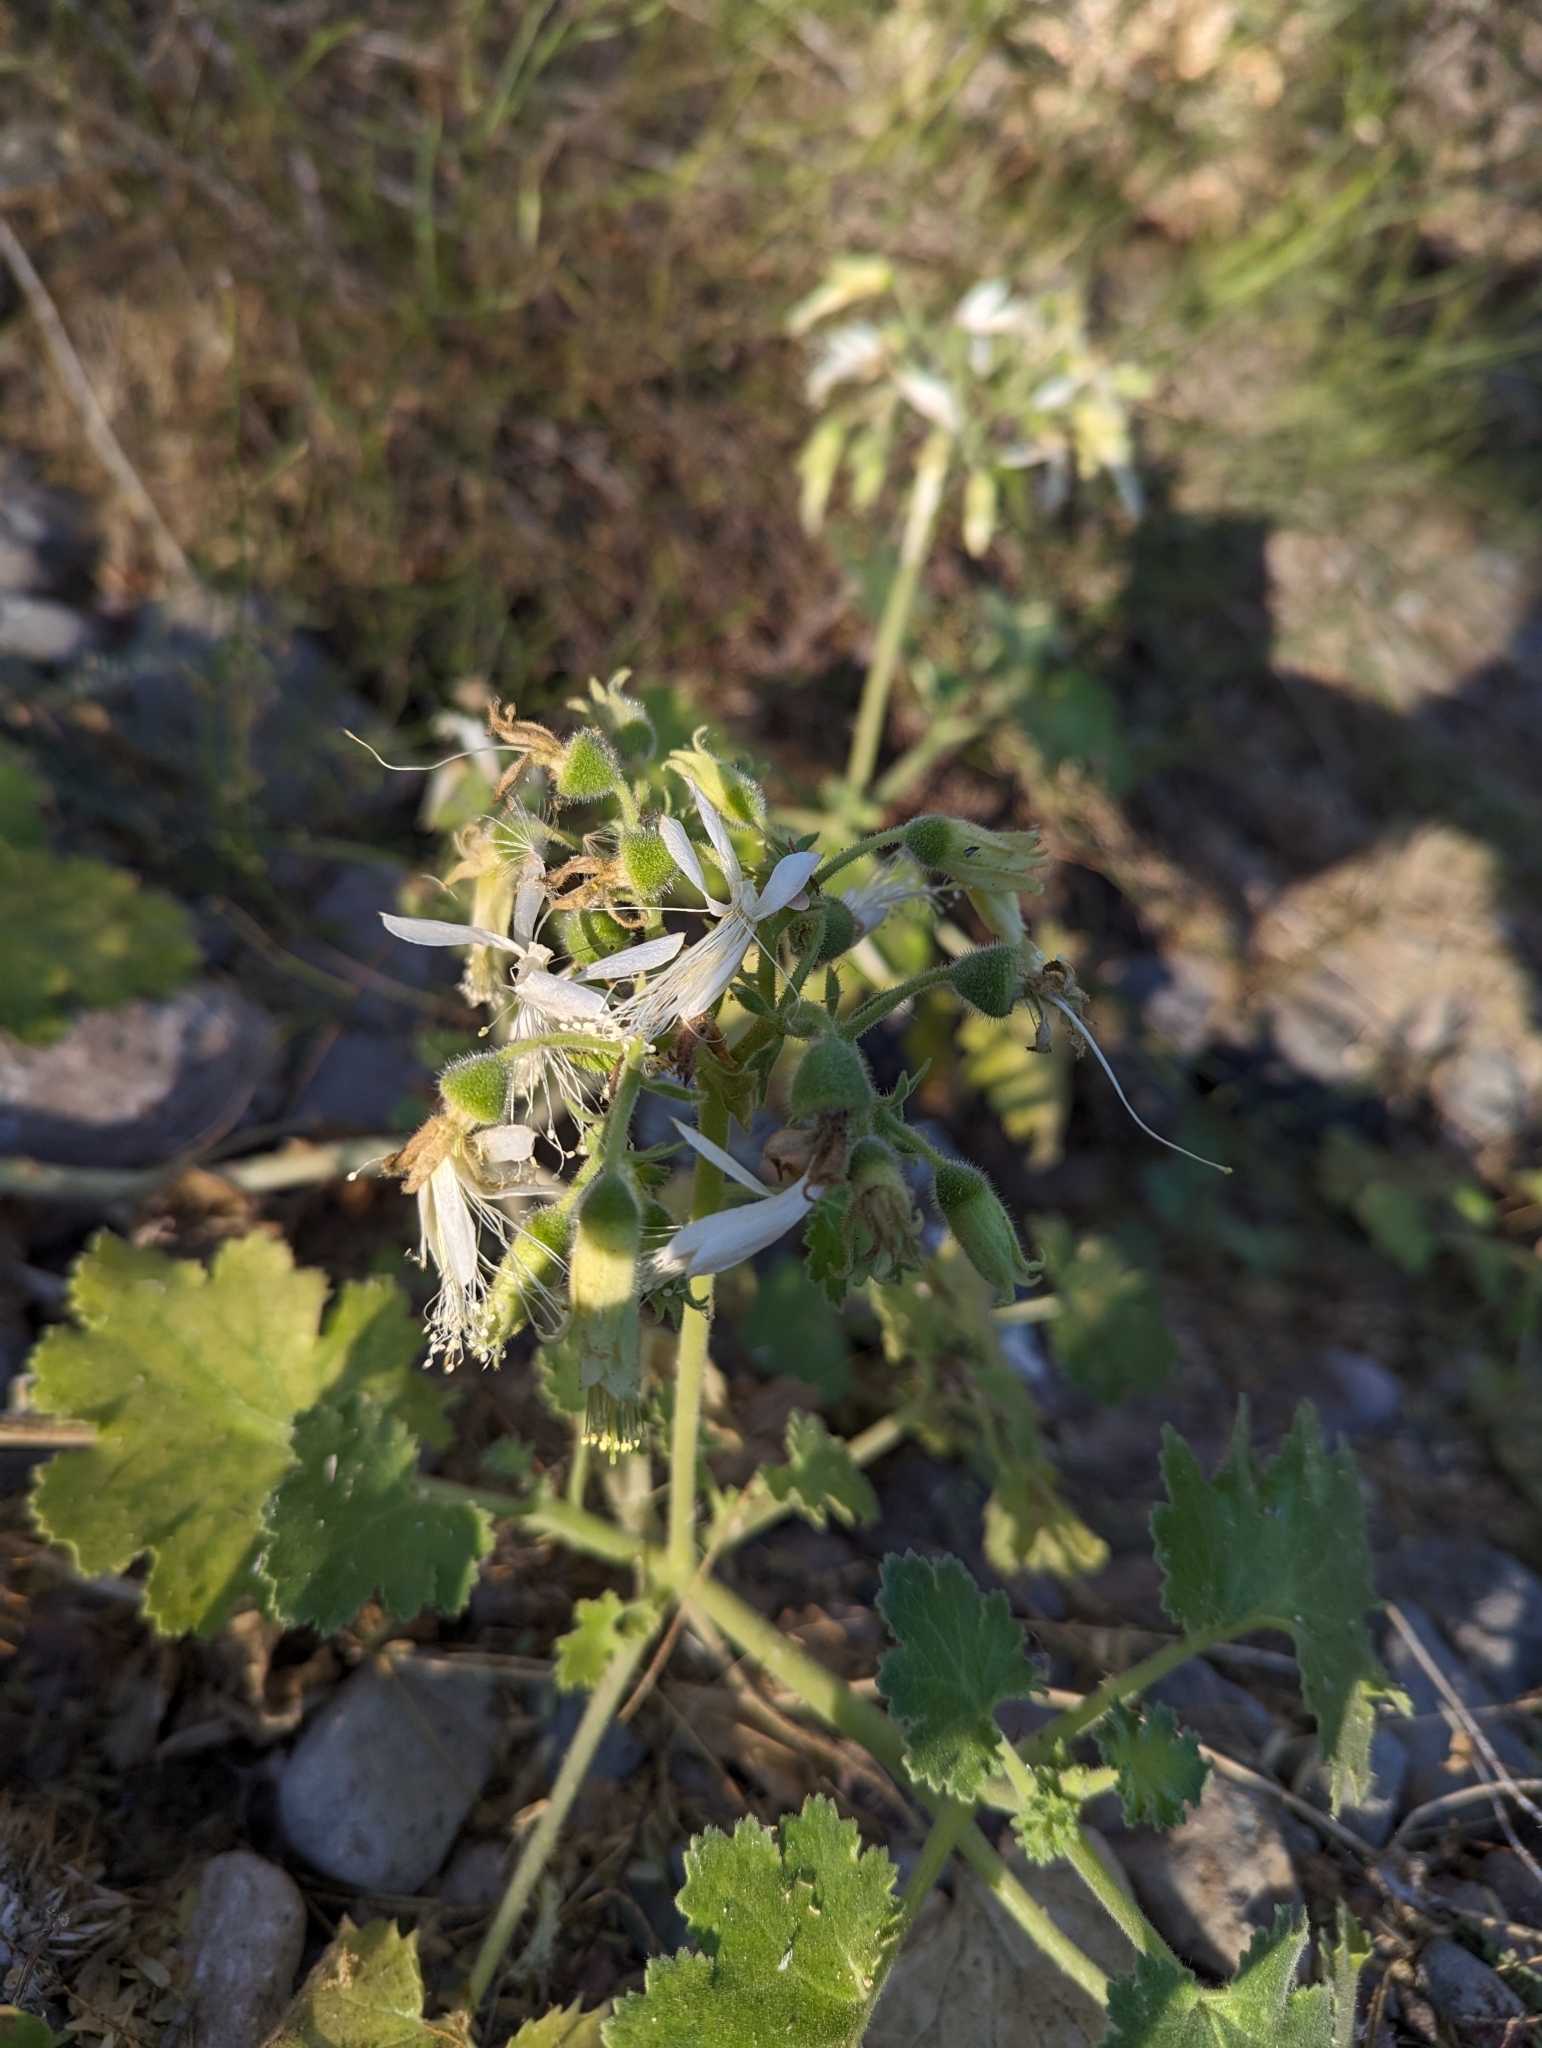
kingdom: Plantae
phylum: Tracheophyta
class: Magnoliopsida
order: Cornales
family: Loasaceae
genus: Eucnide
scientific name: Eucnide cordata
